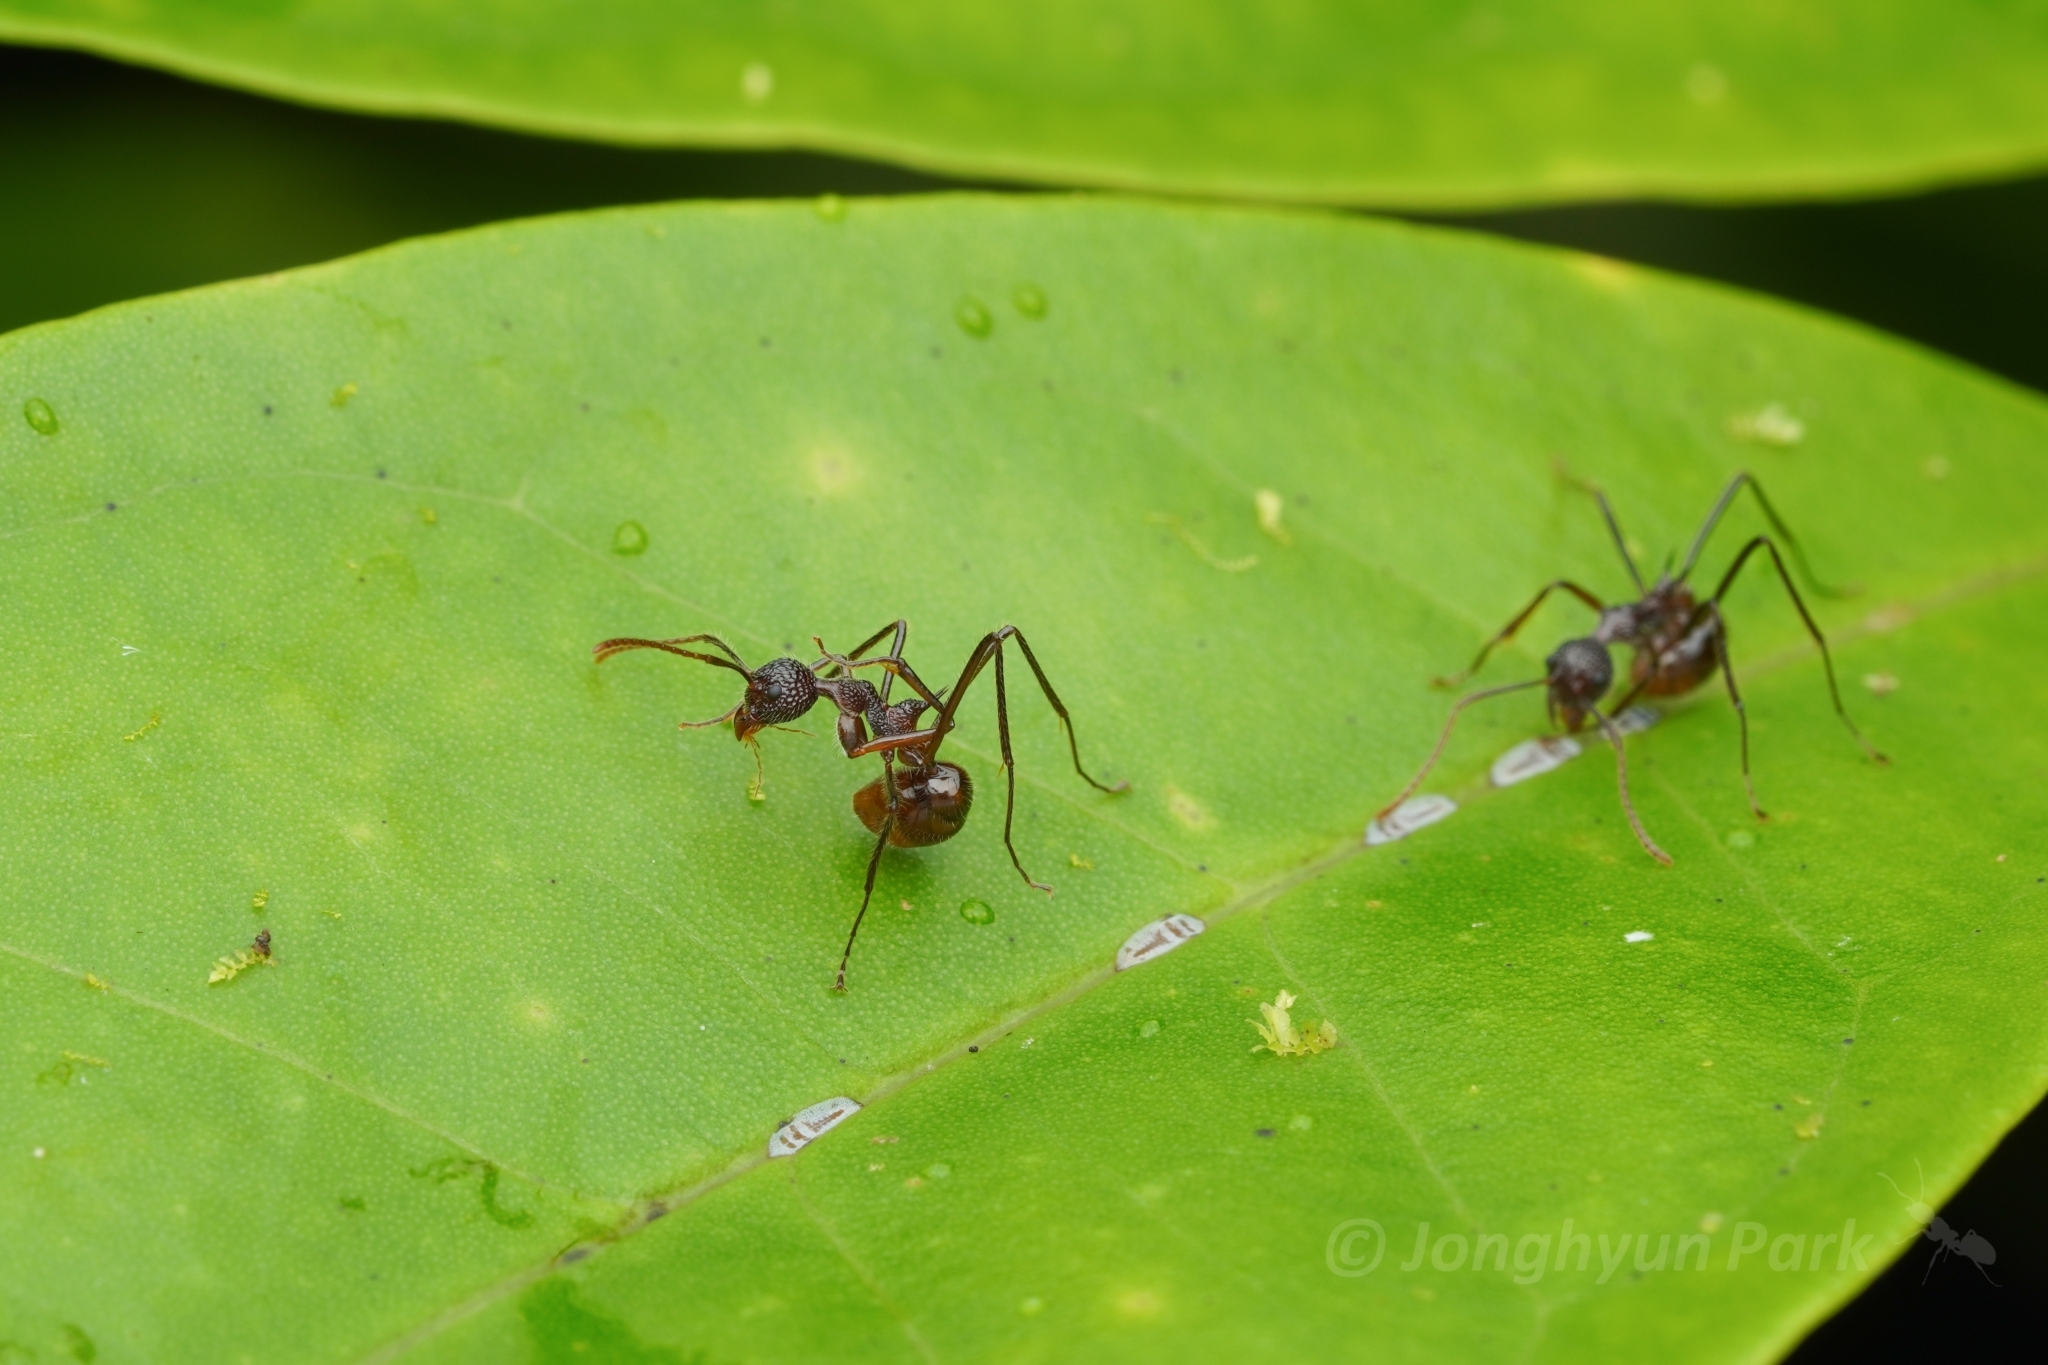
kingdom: Animalia
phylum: Arthropoda
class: Insecta
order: Hymenoptera
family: Formicidae
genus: Dolichoderus
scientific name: Dolichoderus indrapurensis
